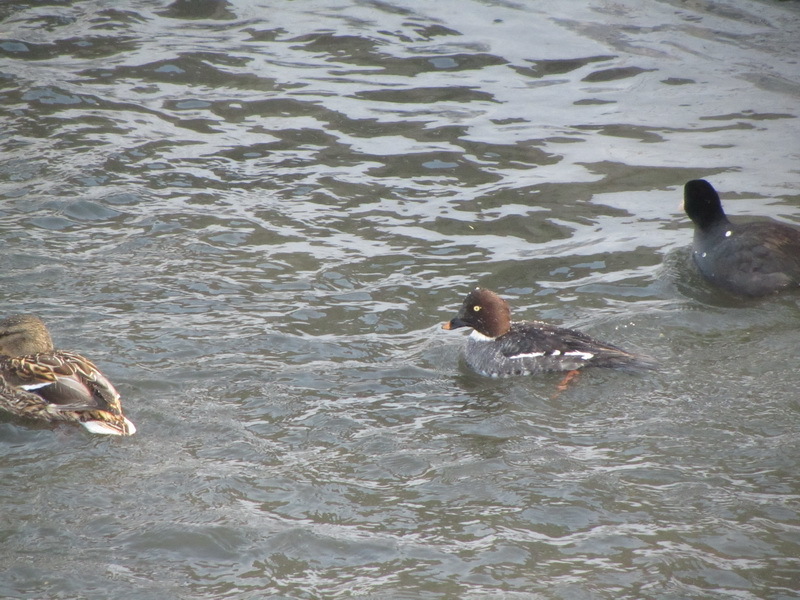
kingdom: Animalia
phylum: Chordata
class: Aves
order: Anseriformes
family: Anatidae
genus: Bucephala
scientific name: Bucephala clangula
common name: Common goldeneye
